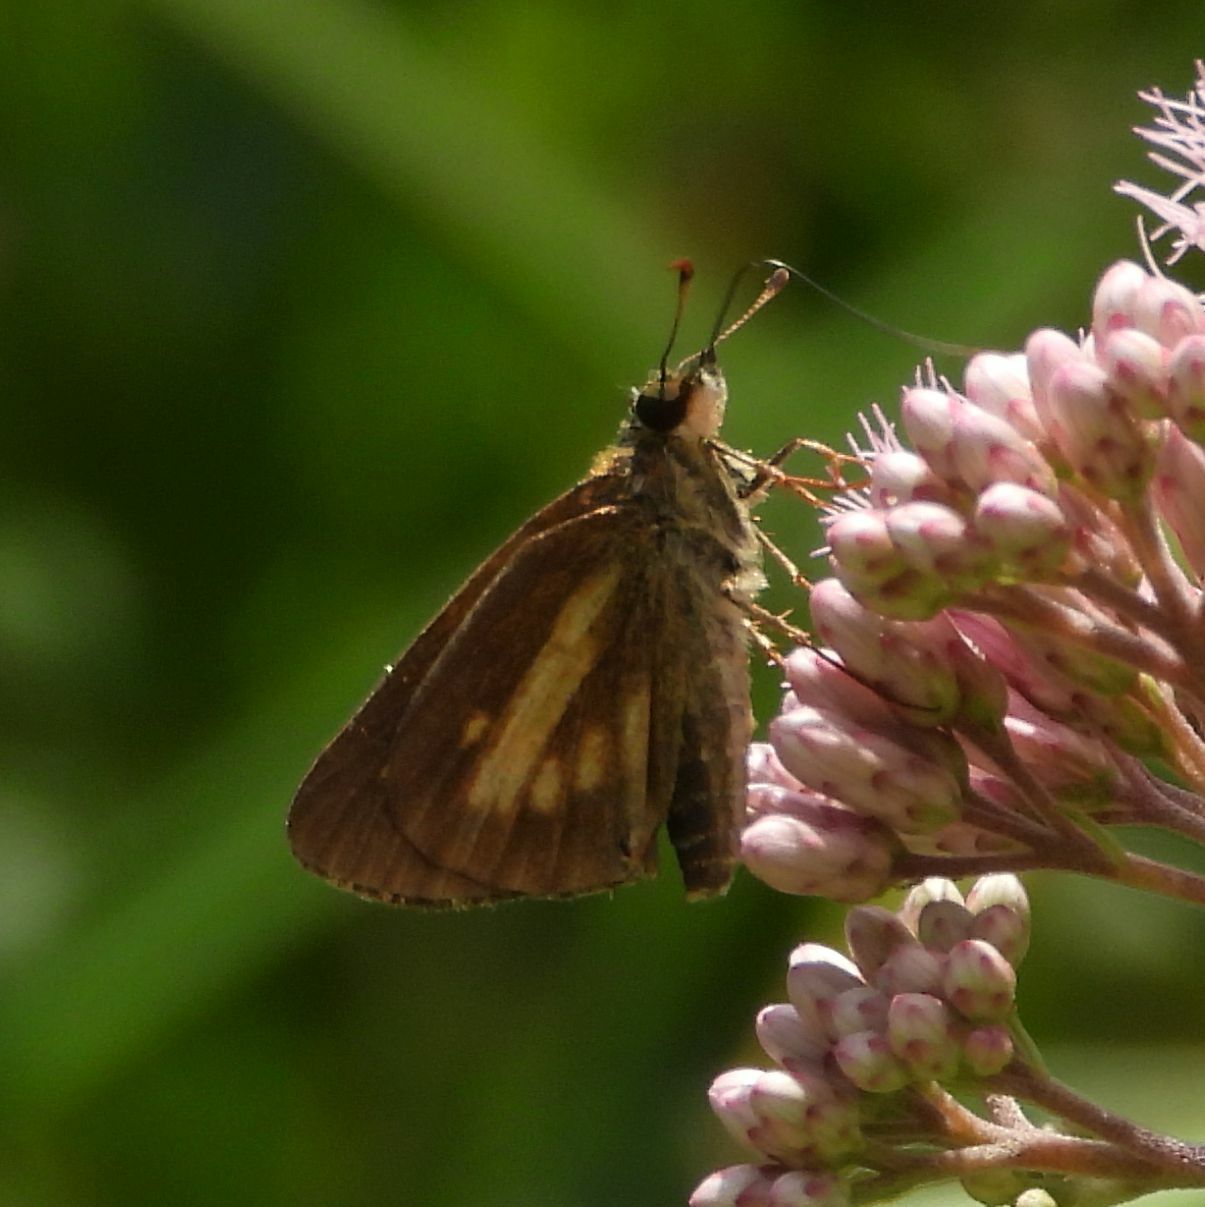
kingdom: Animalia
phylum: Arthropoda
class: Insecta
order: Lepidoptera
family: Hesperiidae
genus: Poanes
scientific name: Poanes viator
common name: Broad-winged skipper
